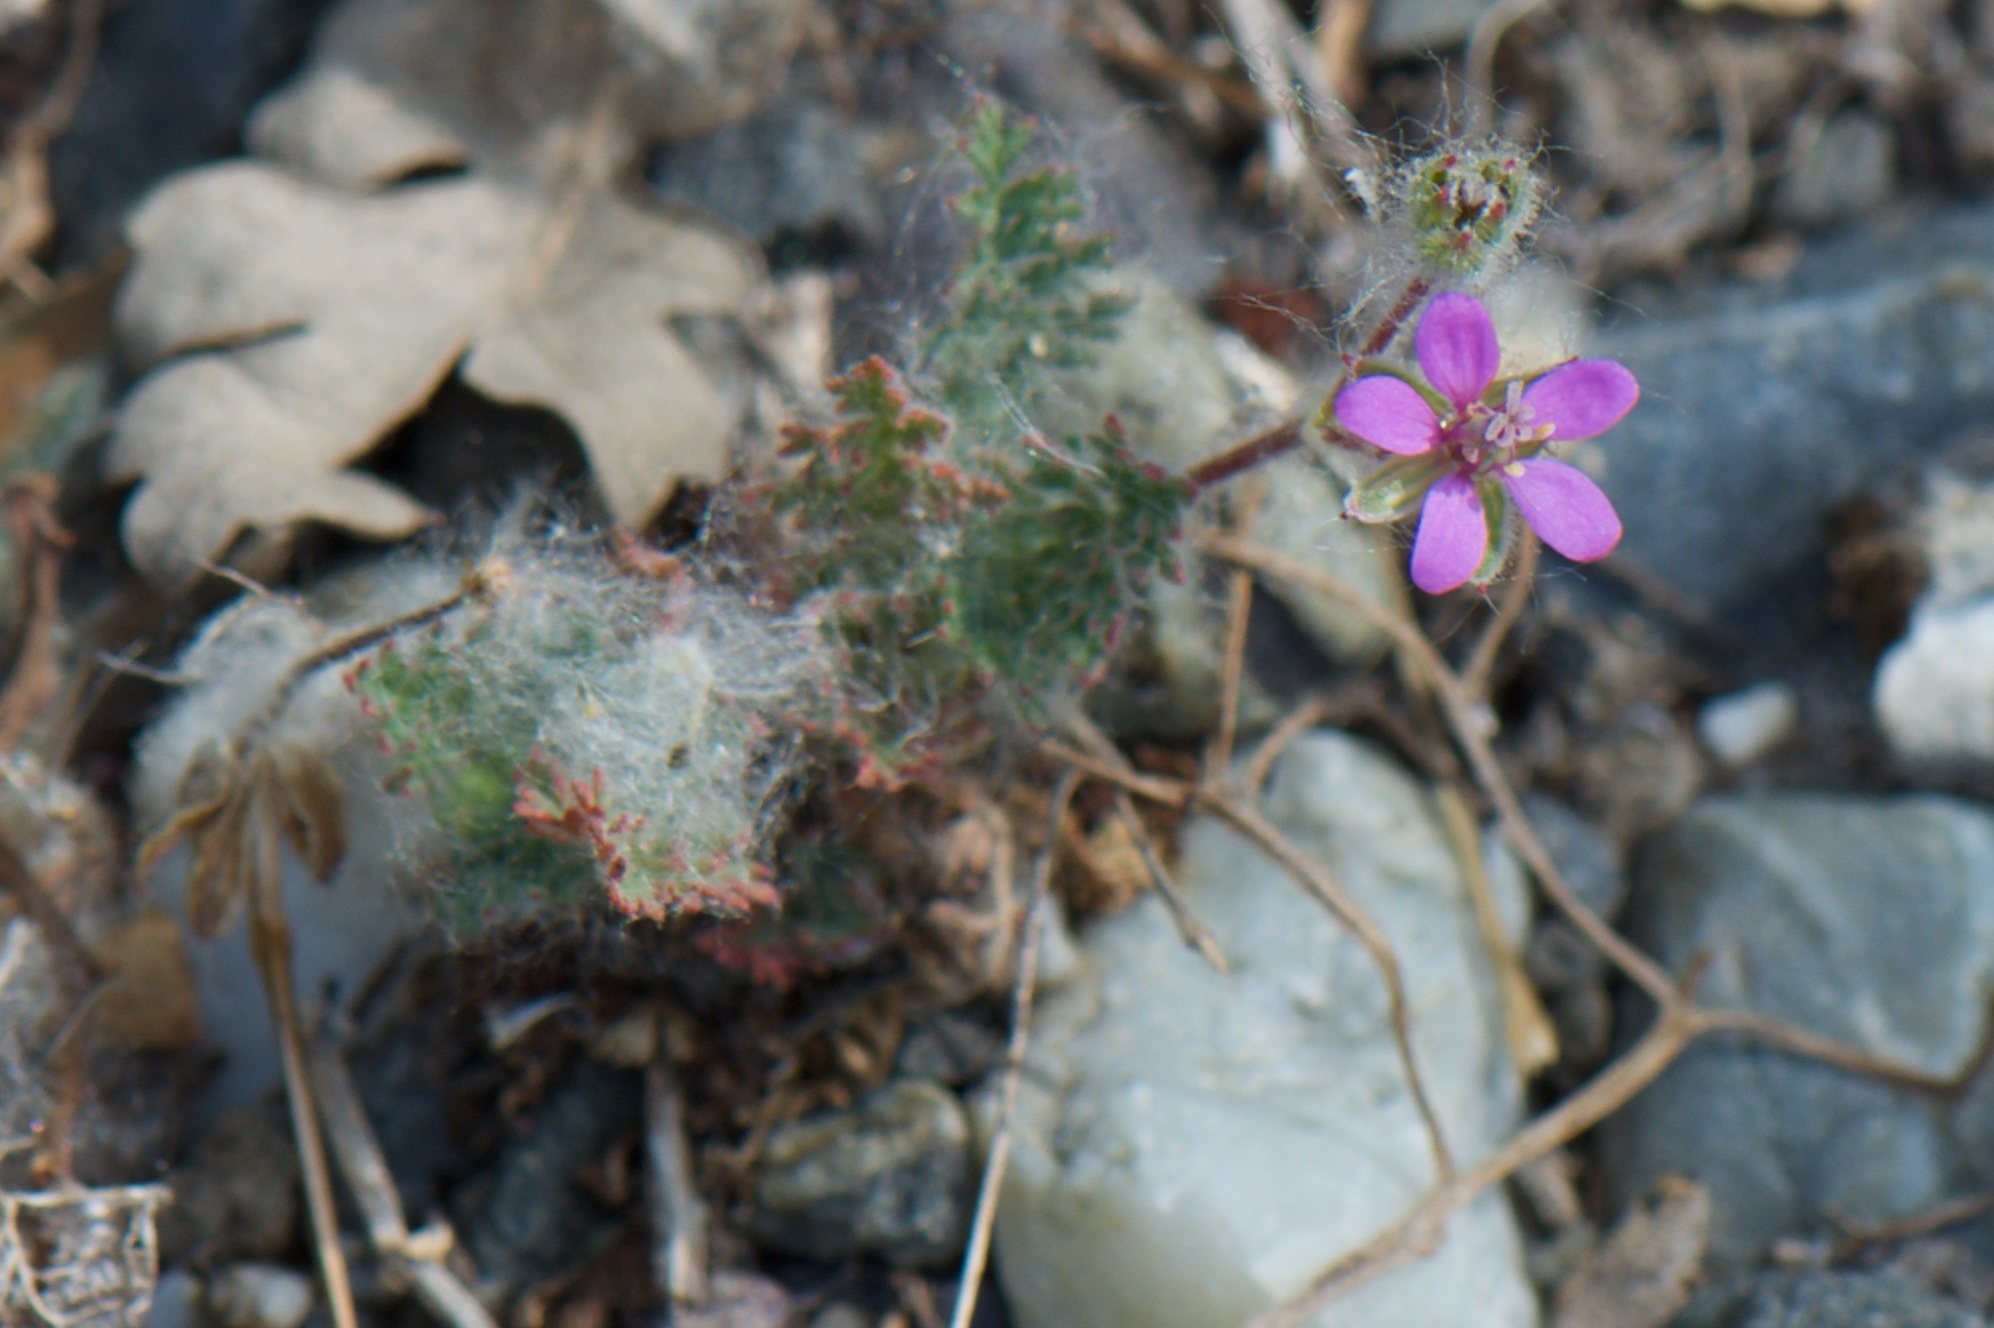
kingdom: Plantae
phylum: Tracheophyta
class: Magnoliopsida
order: Geraniales
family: Geraniaceae
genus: Erodium
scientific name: Erodium cicutarium
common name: Common stork's-bill
